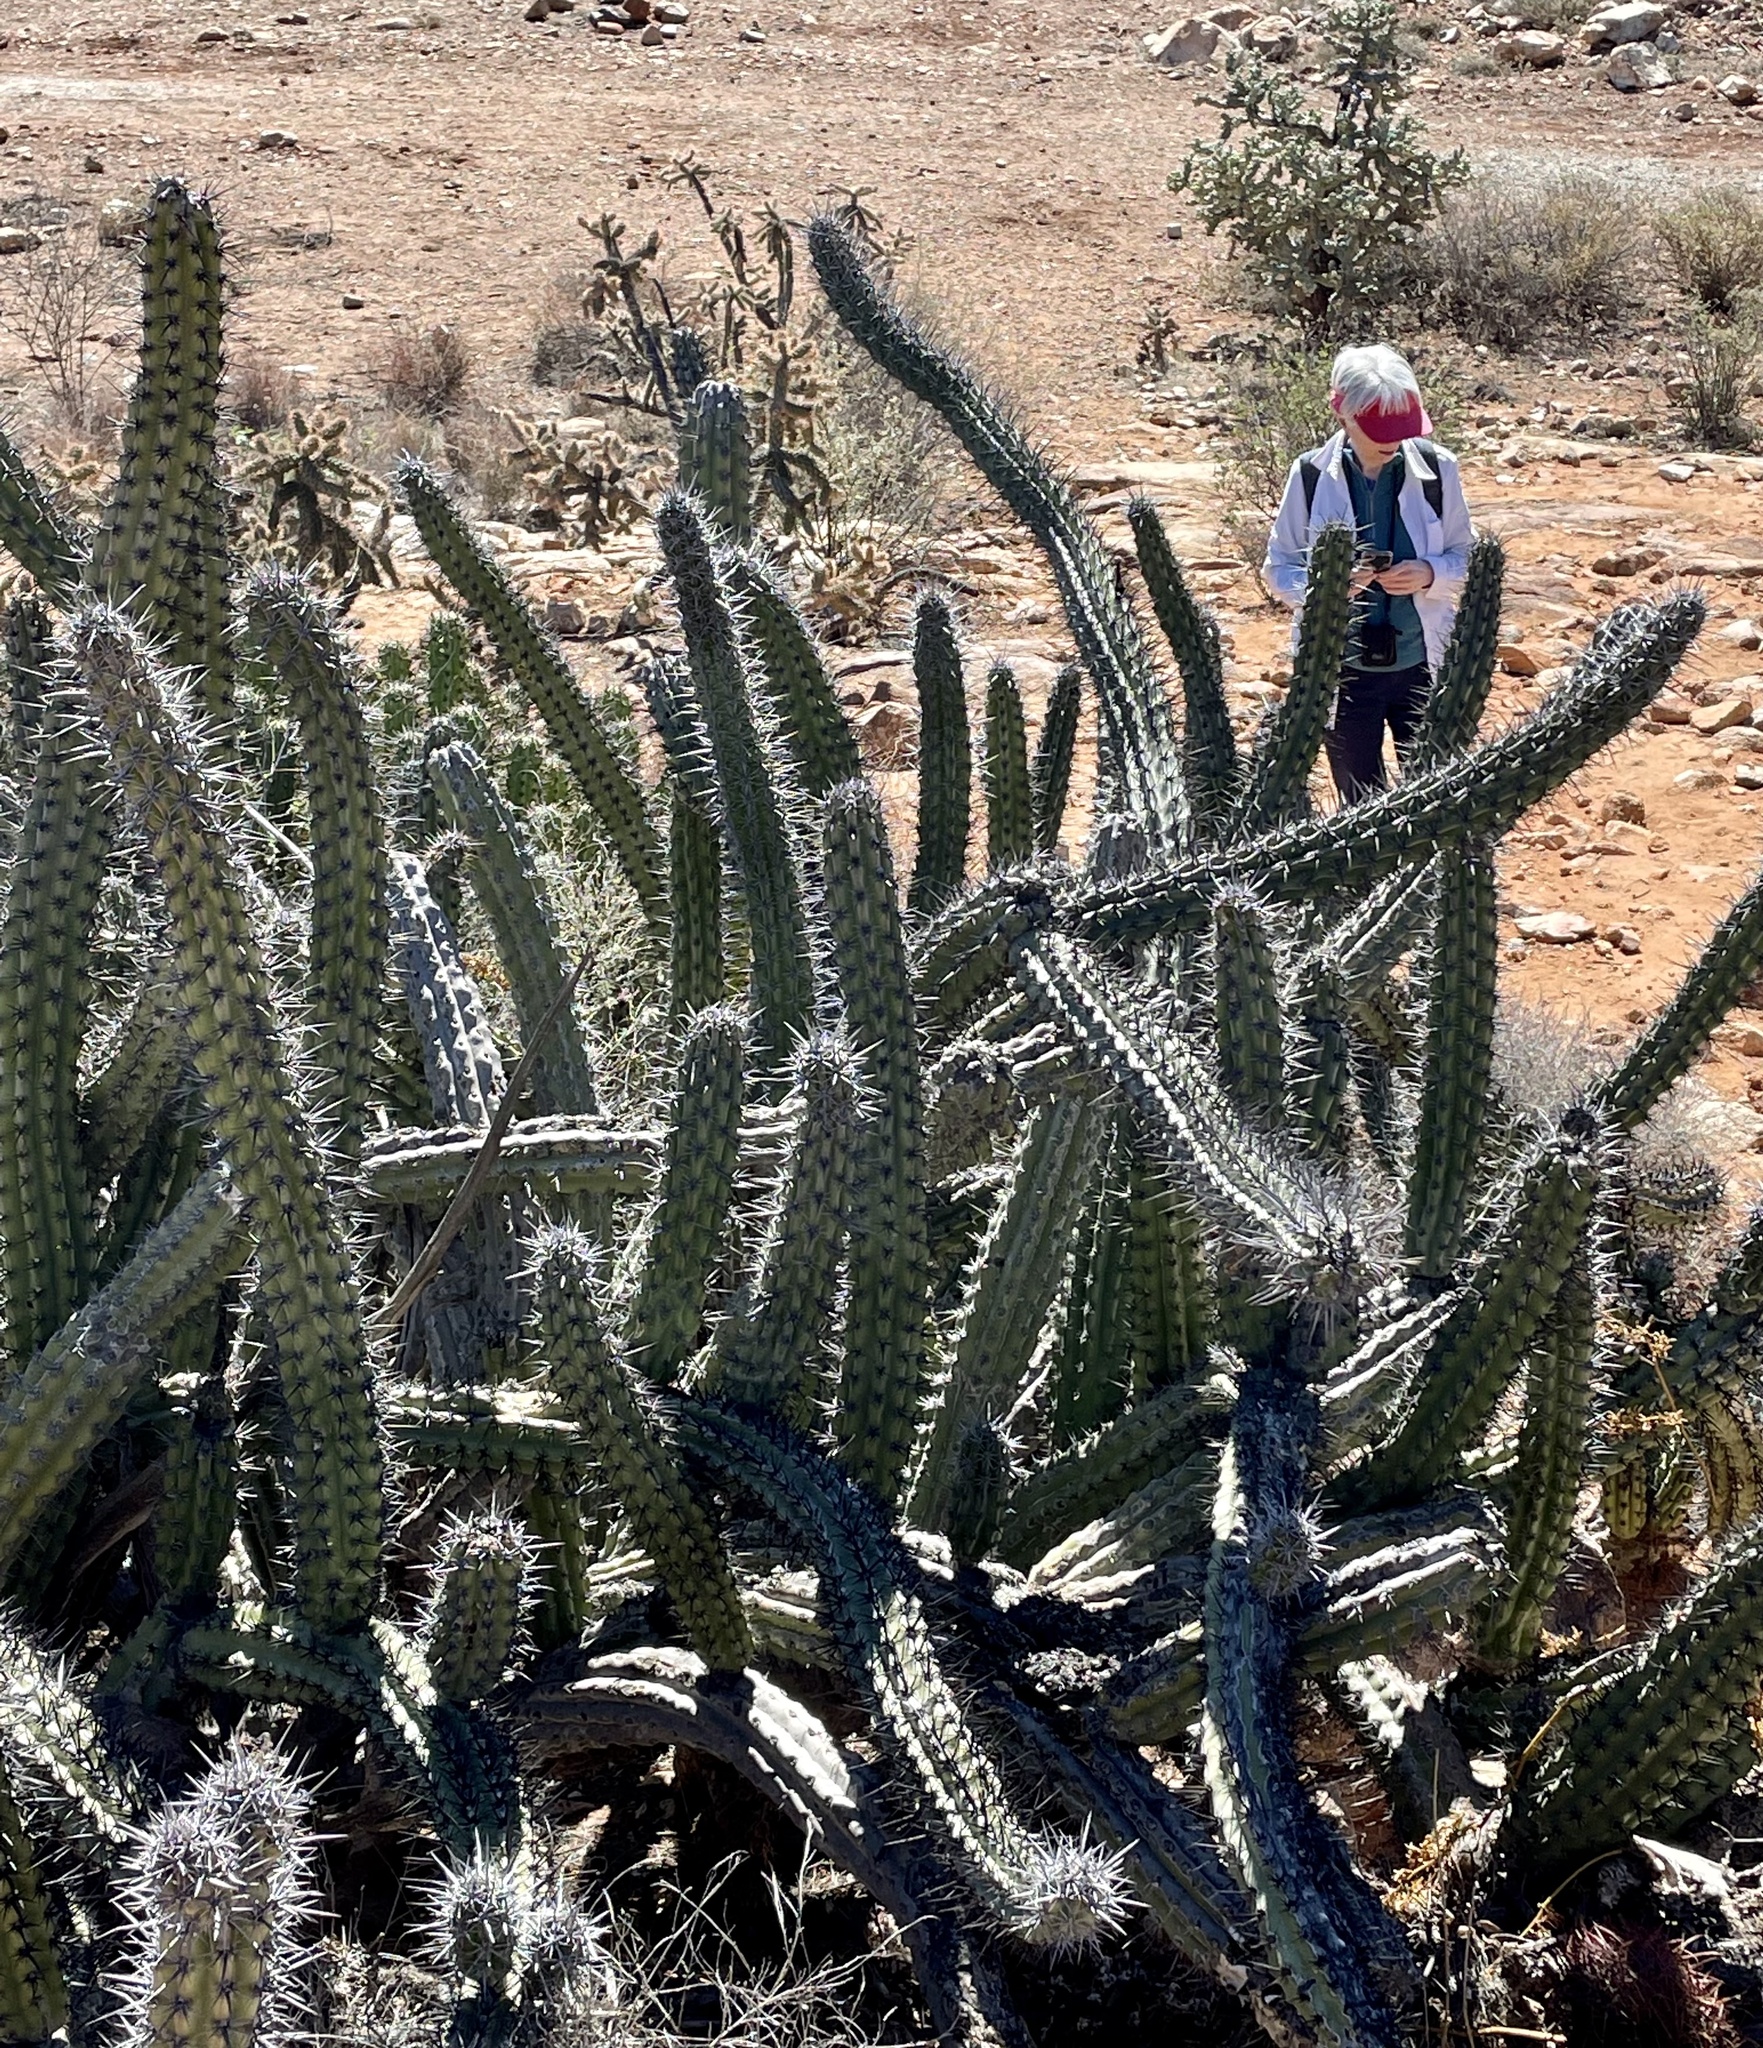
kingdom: Plantae
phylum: Tracheophyta
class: Magnoliopsida
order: Caryophyllales
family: Cactaceae
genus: Stenocereus
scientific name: Stenocereus gummosus
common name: Dagger cactus
